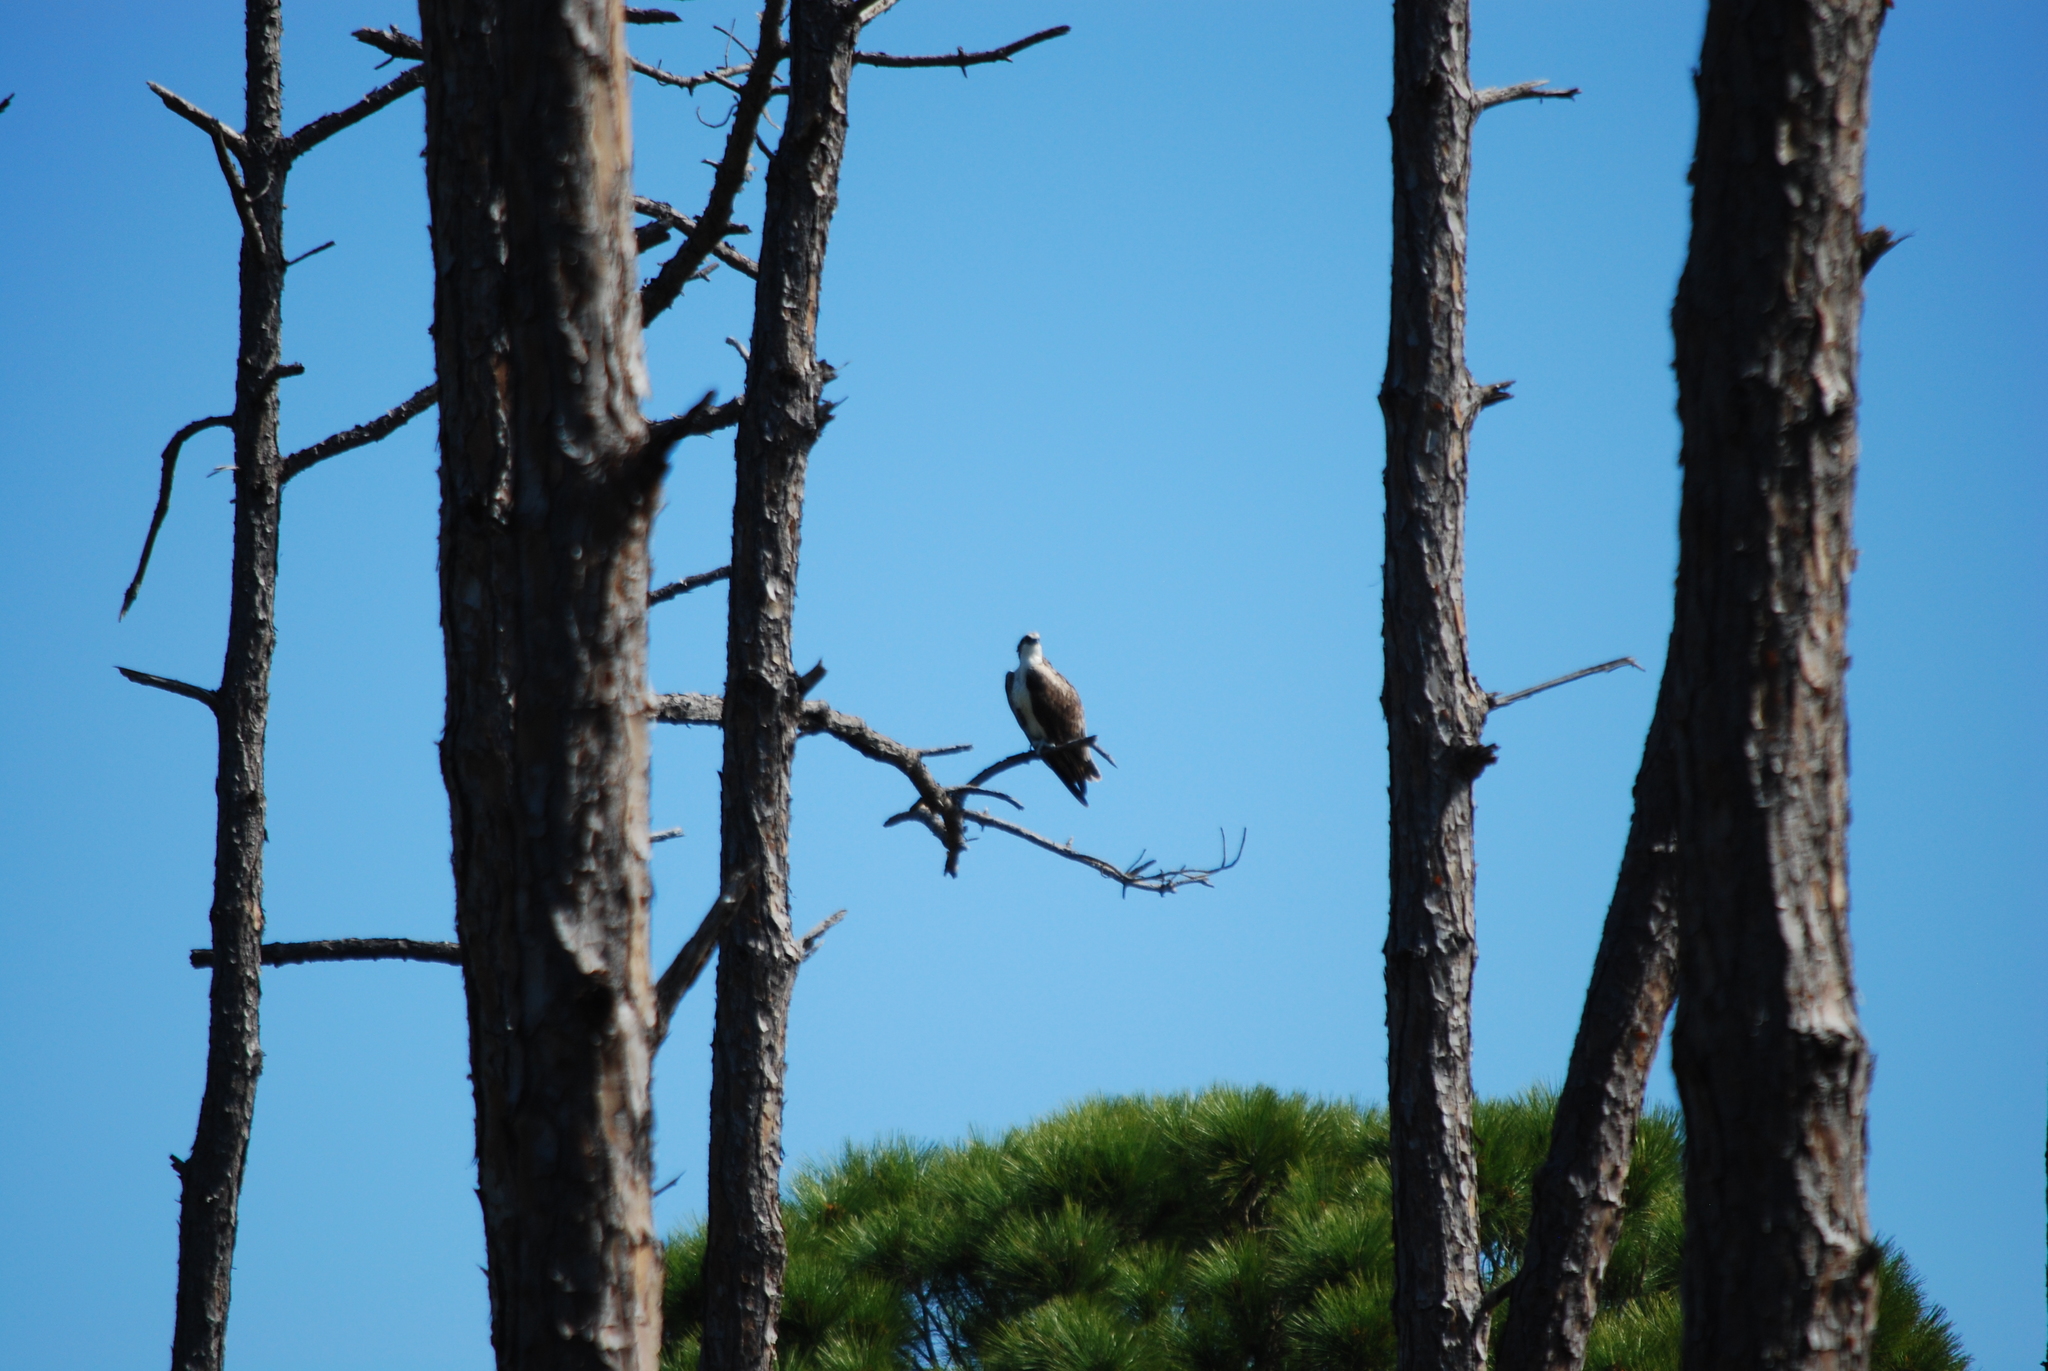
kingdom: Animalia
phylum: Chordata
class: Aves
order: Accipitriformes
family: Pandionidae
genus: Pandion
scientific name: Pandion haliaetus
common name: Osprey
